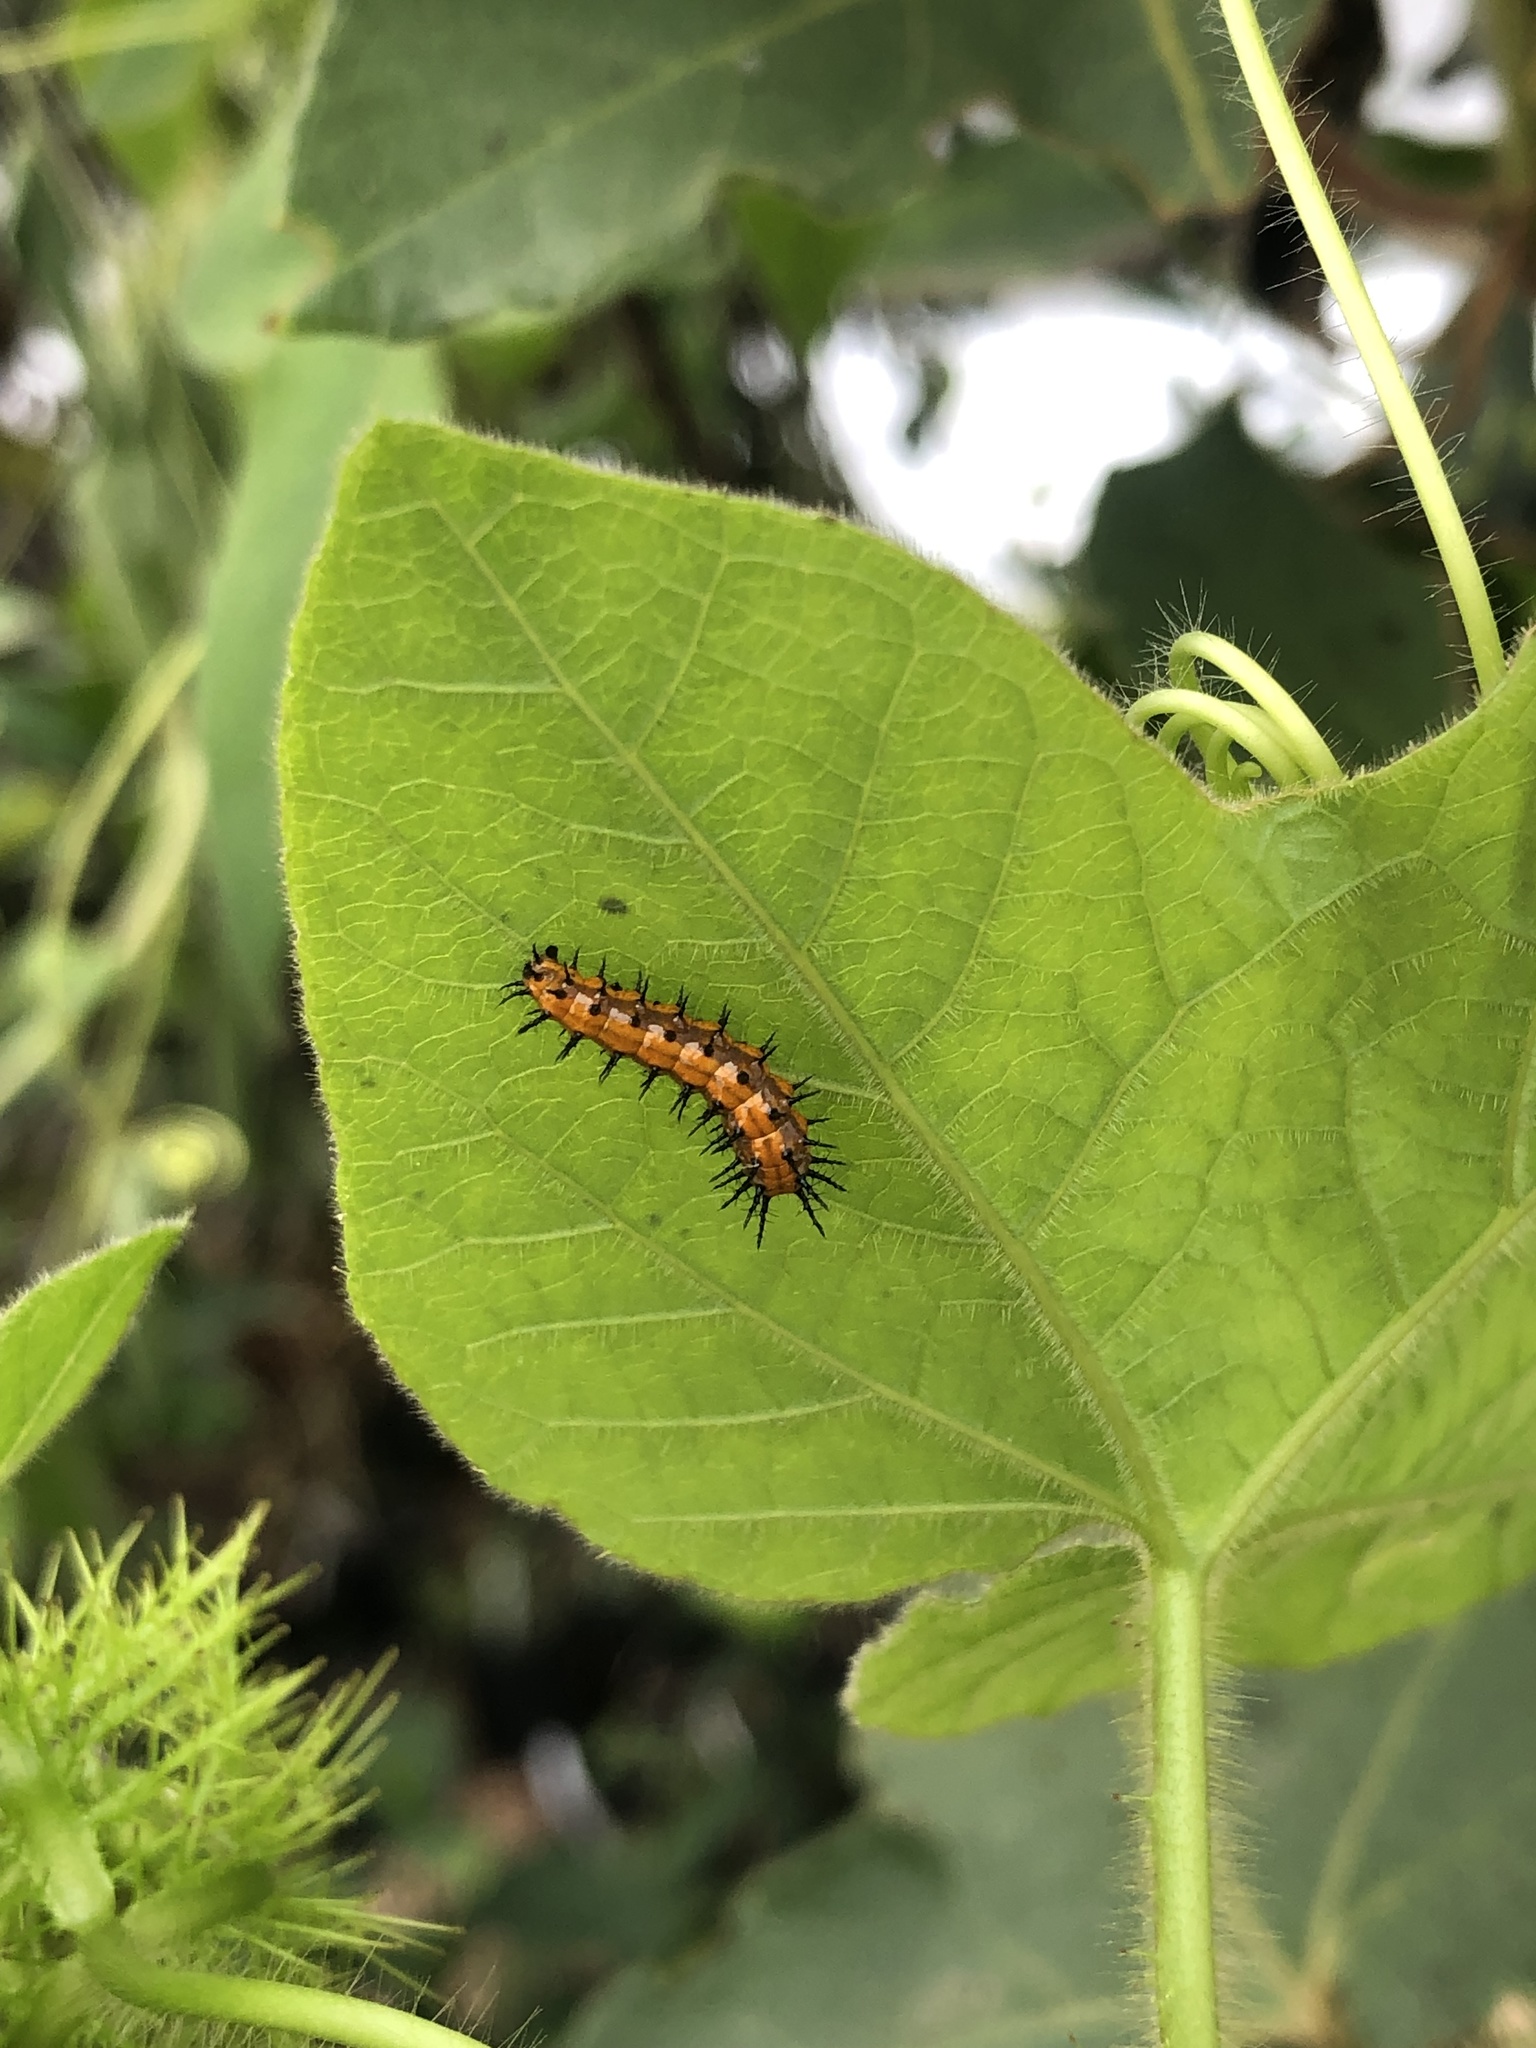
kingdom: Animalia
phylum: Arthropoda
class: Insecta
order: Lepidoptera
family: Nymphalidae
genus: Dione
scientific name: Dione vanillae
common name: Gulf fritillary
